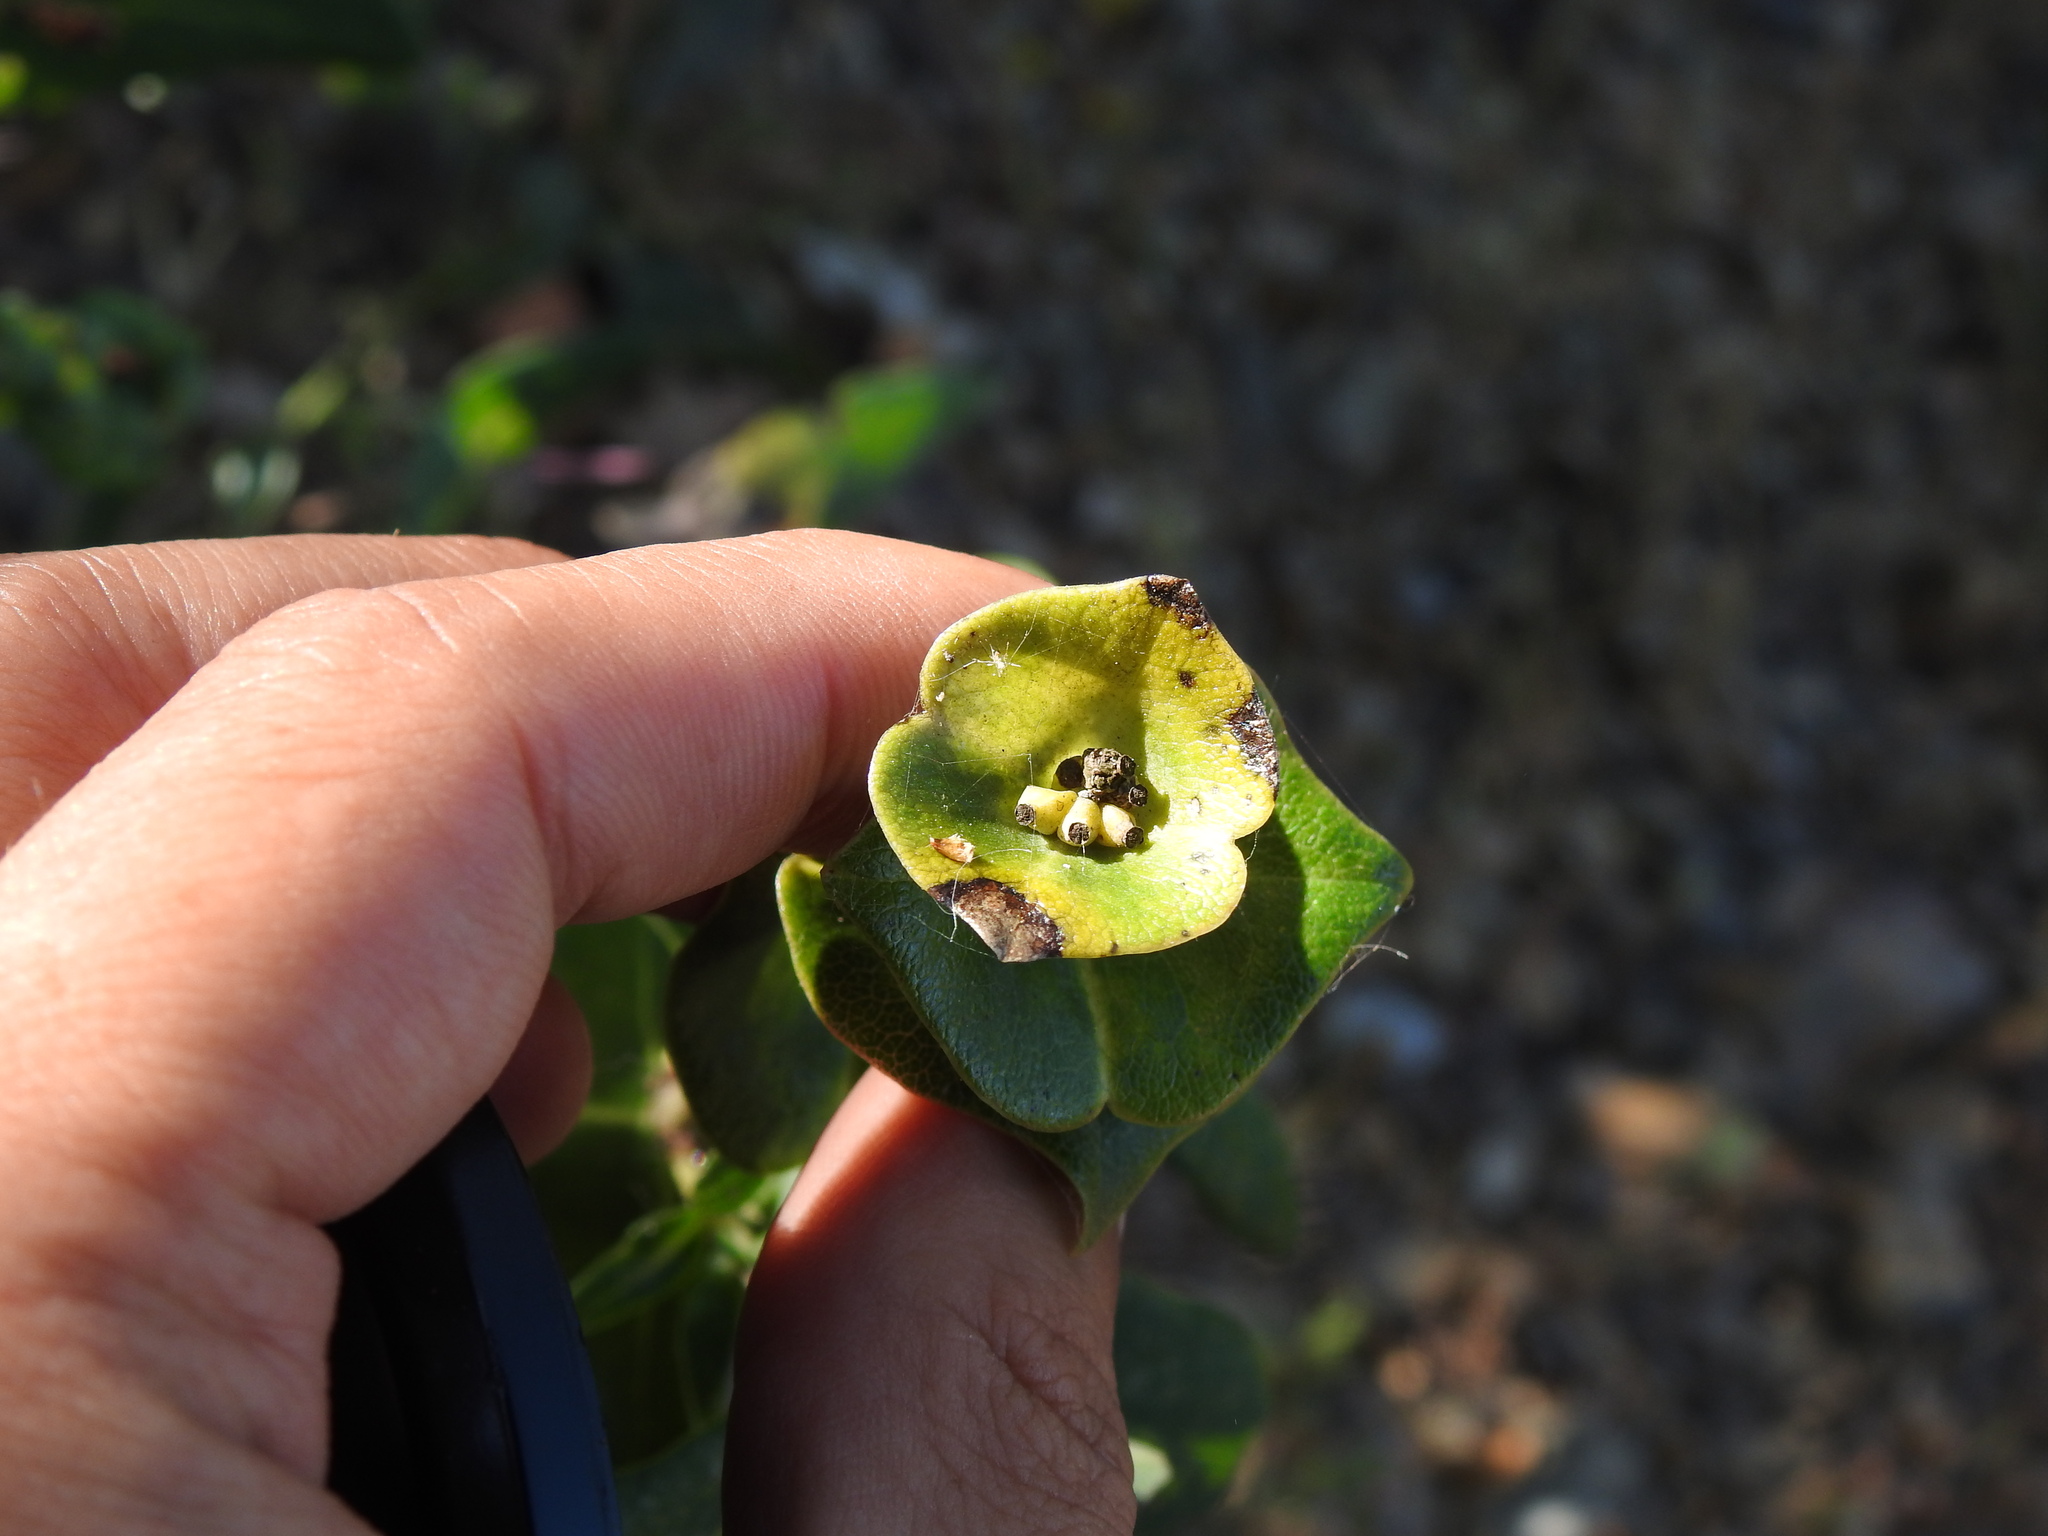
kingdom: Plantae
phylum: Tracheophyta
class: Magnoliopsida
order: Dipsacales
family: Caprifoliaceae
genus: Lonicera
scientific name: Lonicera implexa
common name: Minorca honeysuckle
